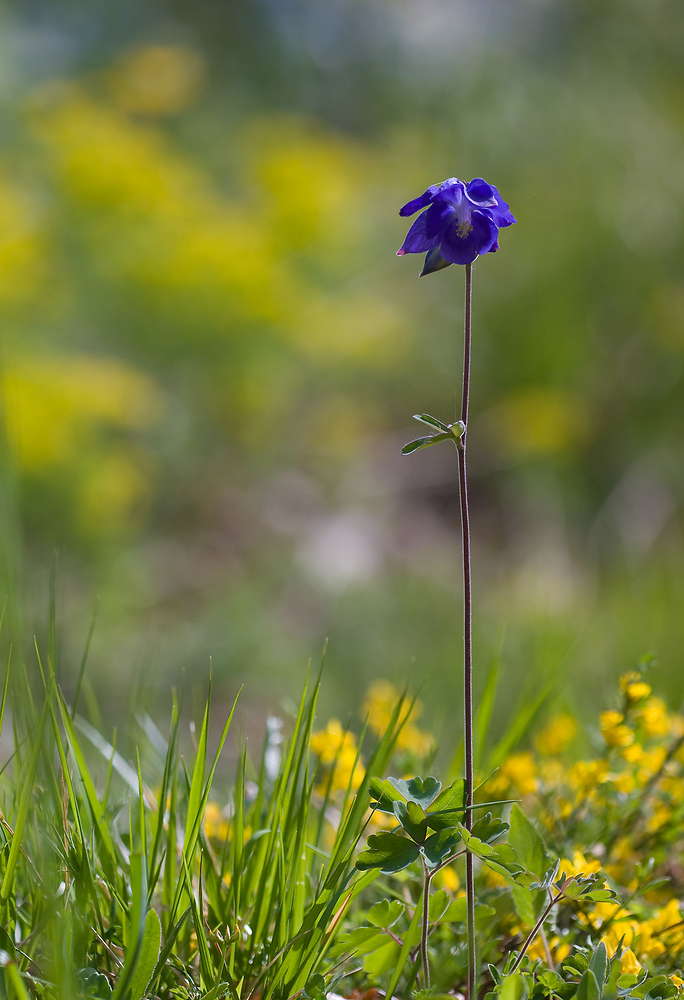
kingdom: Plantae
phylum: Tracheophyta
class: Magnoliopsida
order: Ranunculales
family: Ranunculaceae
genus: Aquilegia
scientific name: Aquilegia vulgaris
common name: Columbine
